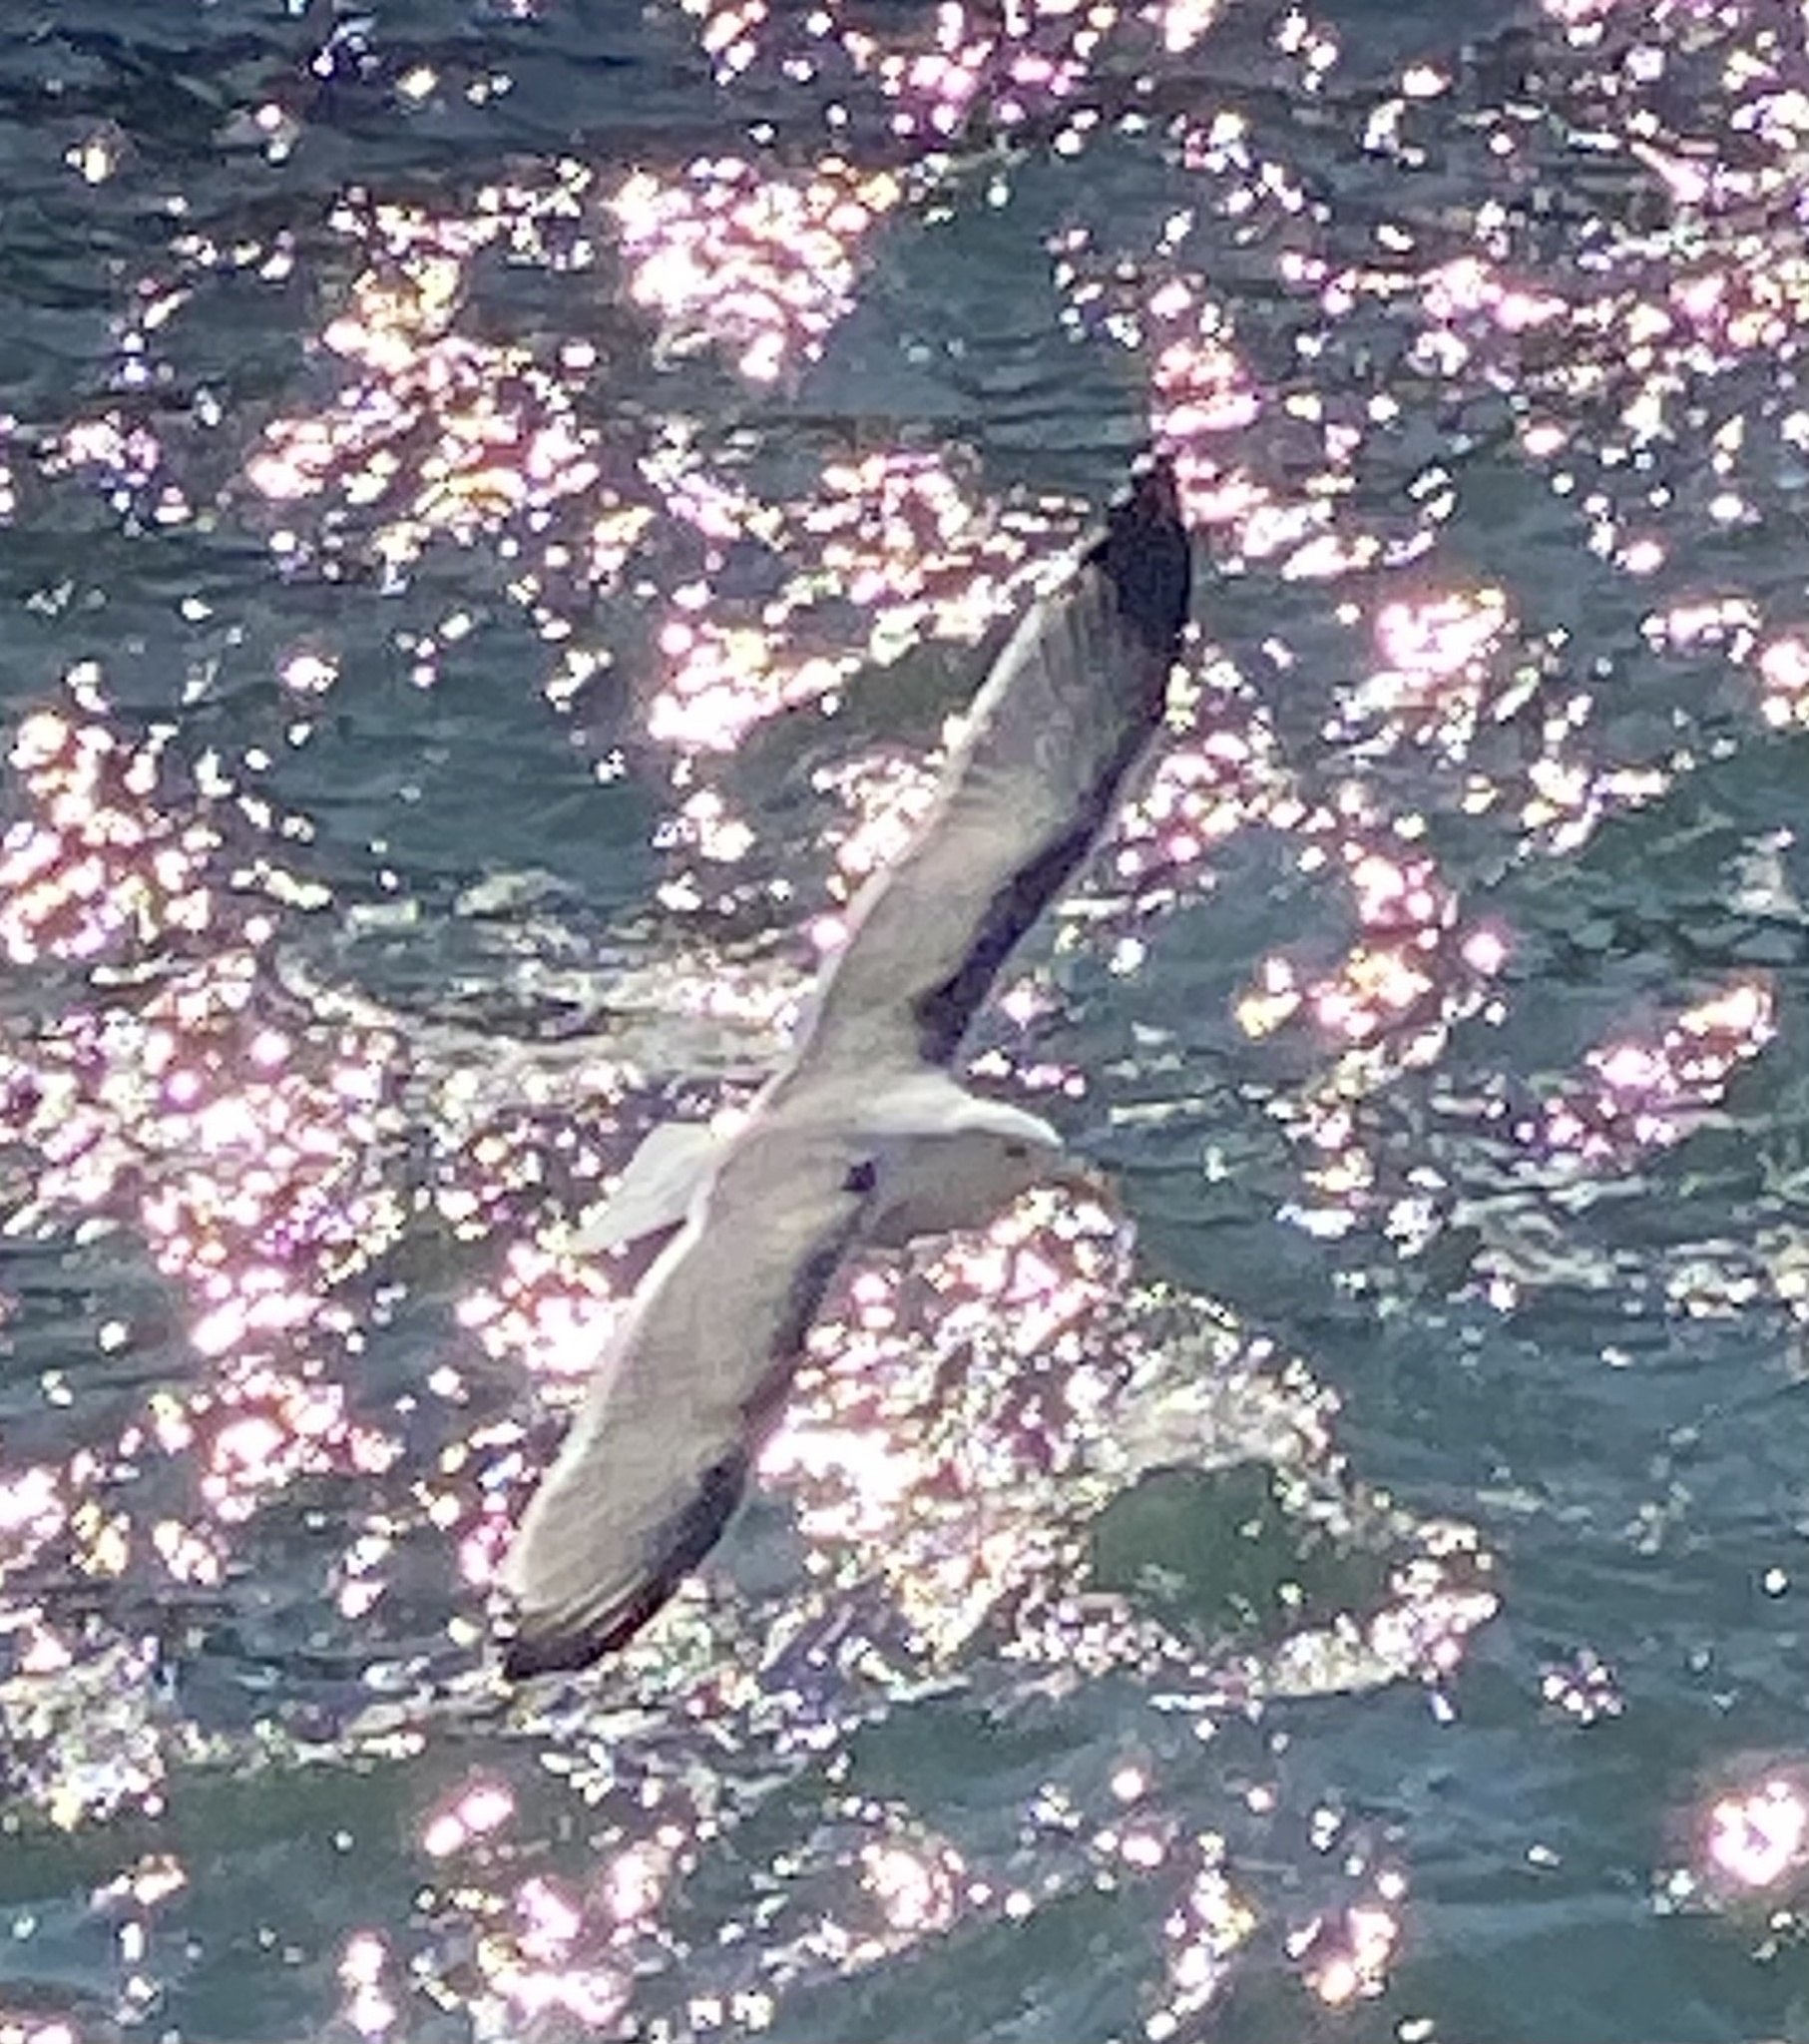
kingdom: Animalia
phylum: Chordata
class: Aves
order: Charadriiformes
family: Laridae
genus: Larus
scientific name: Larus occidentalis
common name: Western gull
